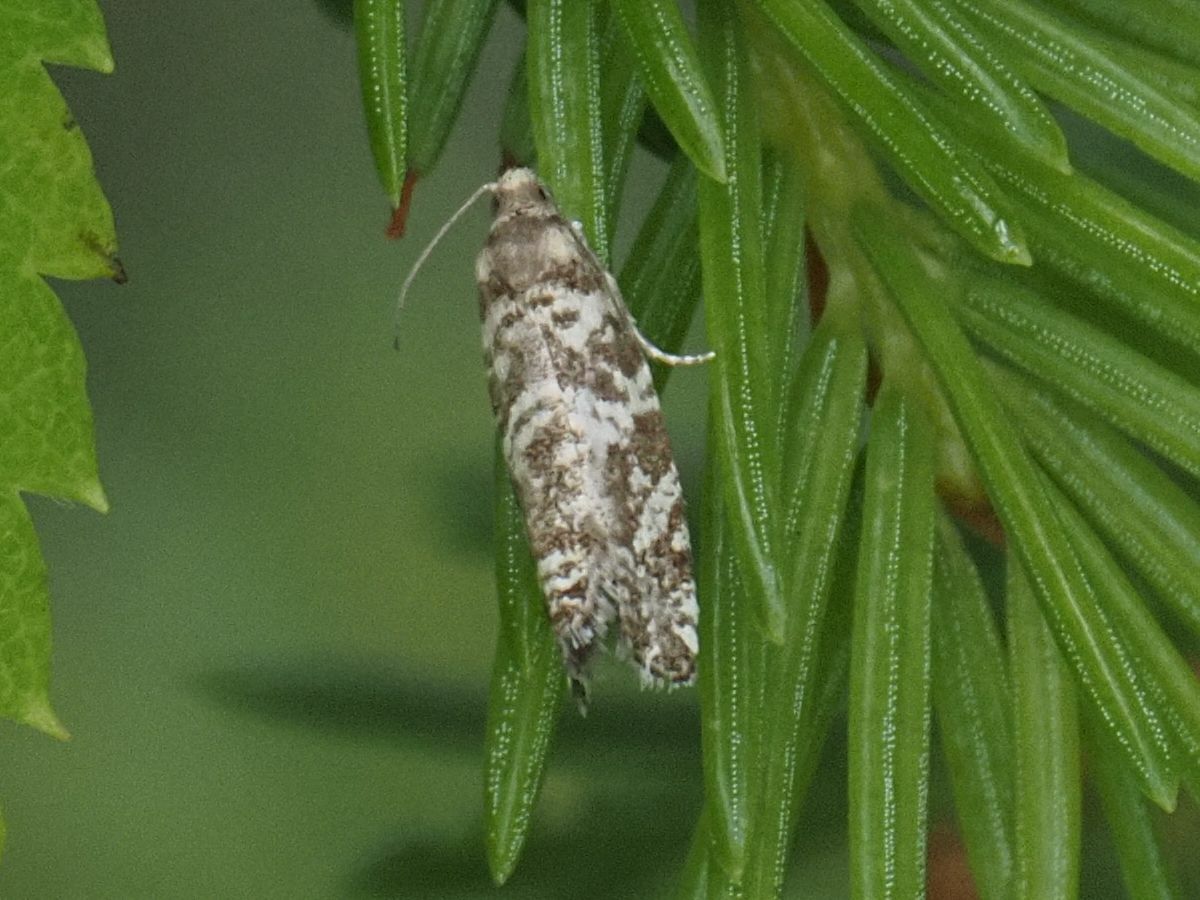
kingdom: Animalia
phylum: Arthropoda
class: Insecta
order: Lepidoptera
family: Tortricidae
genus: Epinotia
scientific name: Epinotia tedella
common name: Common spruce bell
